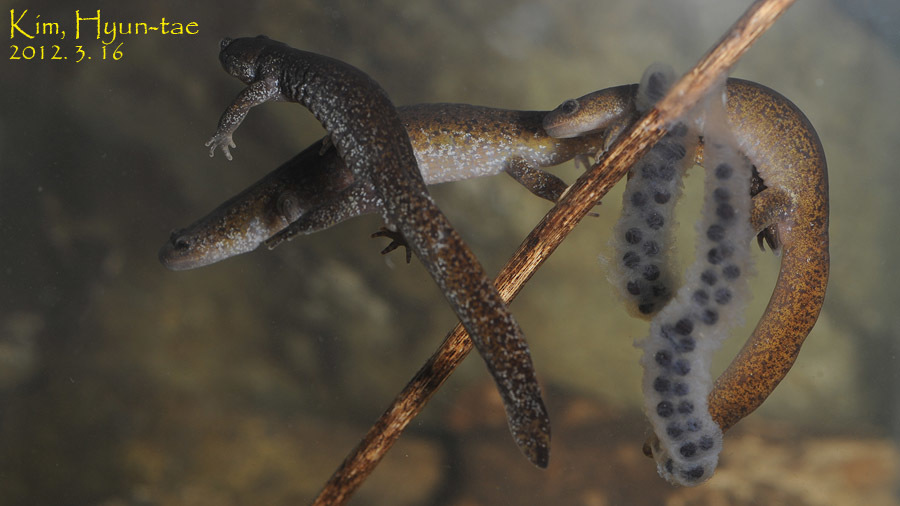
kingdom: Animalia
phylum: Chordata
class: Amphibia
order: Caudata
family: Hynobiidae
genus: Hynobius
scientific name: Hynobius leechii
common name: Gensan salamander
